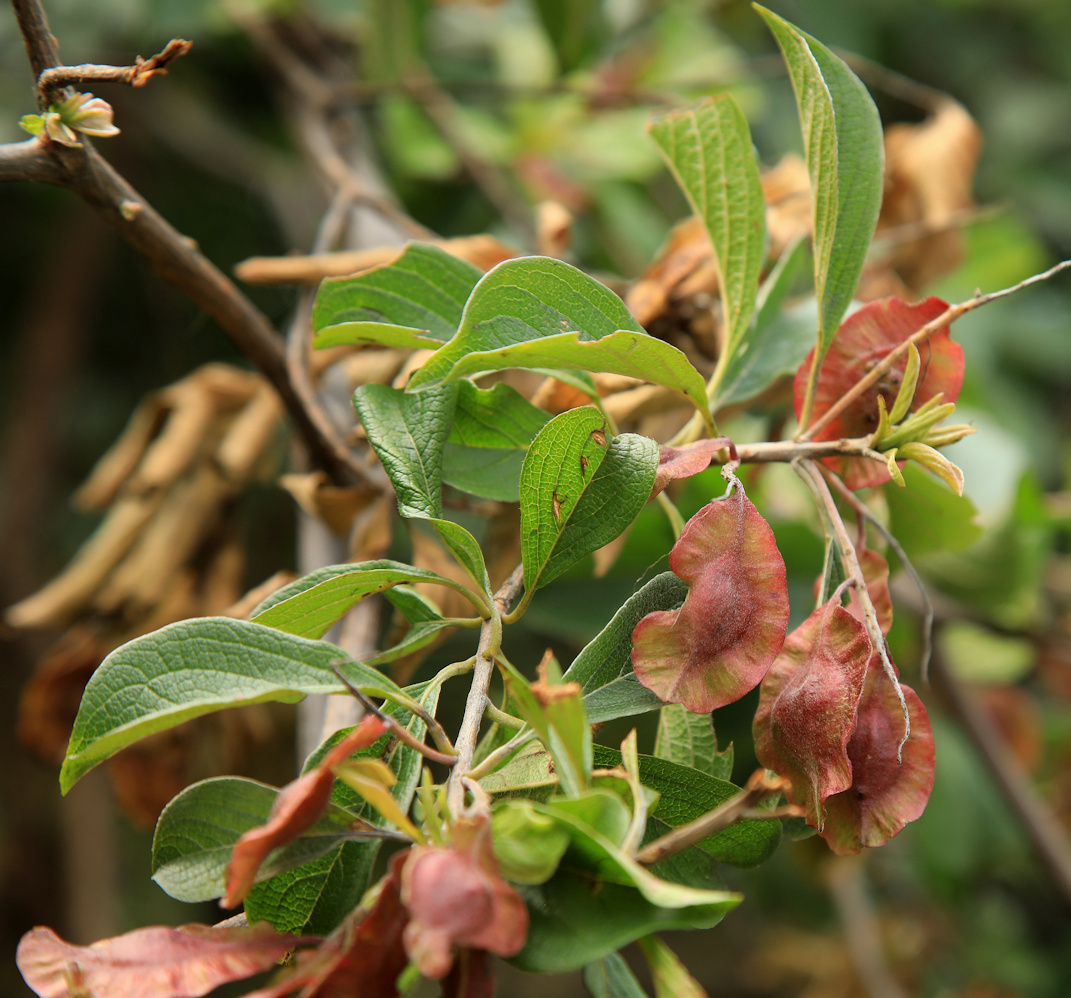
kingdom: Plantae
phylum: Tracheophyta
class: Magnoliopsida
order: Myrtales
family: Combretaceae
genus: Terminalia
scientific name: Terminalia phanerophlebia
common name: Lebombo cluster-leaf
